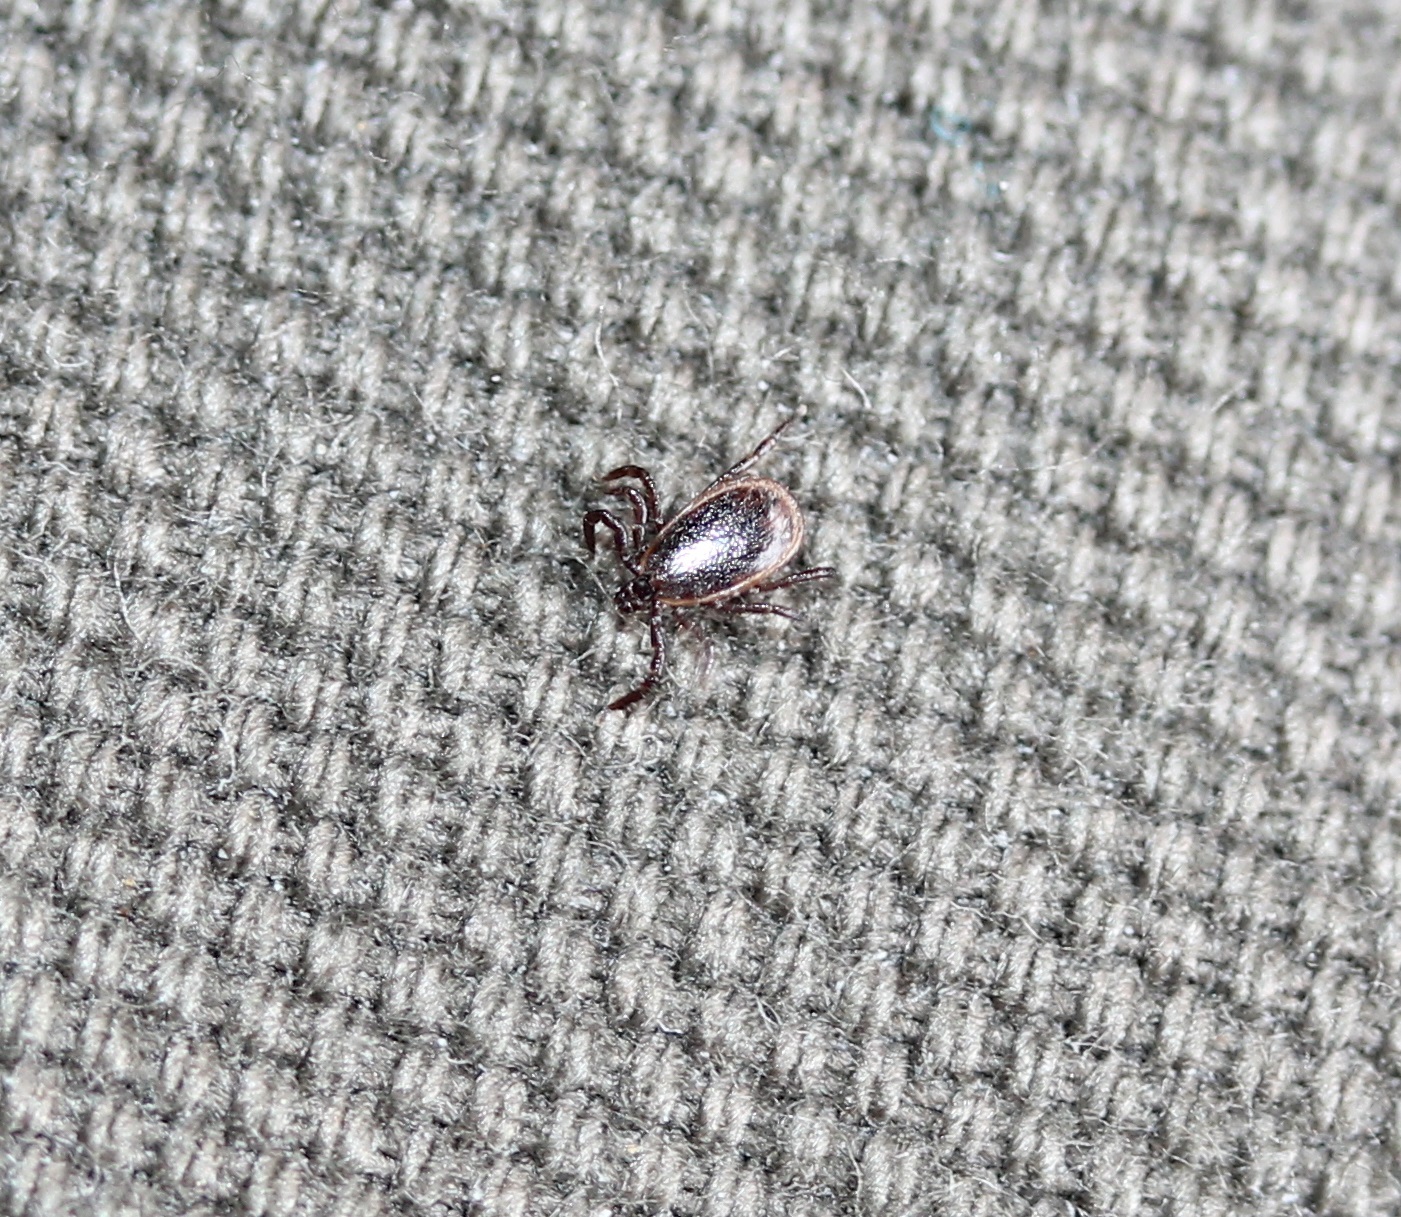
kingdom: Animalia
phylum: Arthropoda
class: Arachnida
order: Ixodida
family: Ixodidae
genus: Ixodes
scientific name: Ixodes scapularis
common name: Black legged tick
